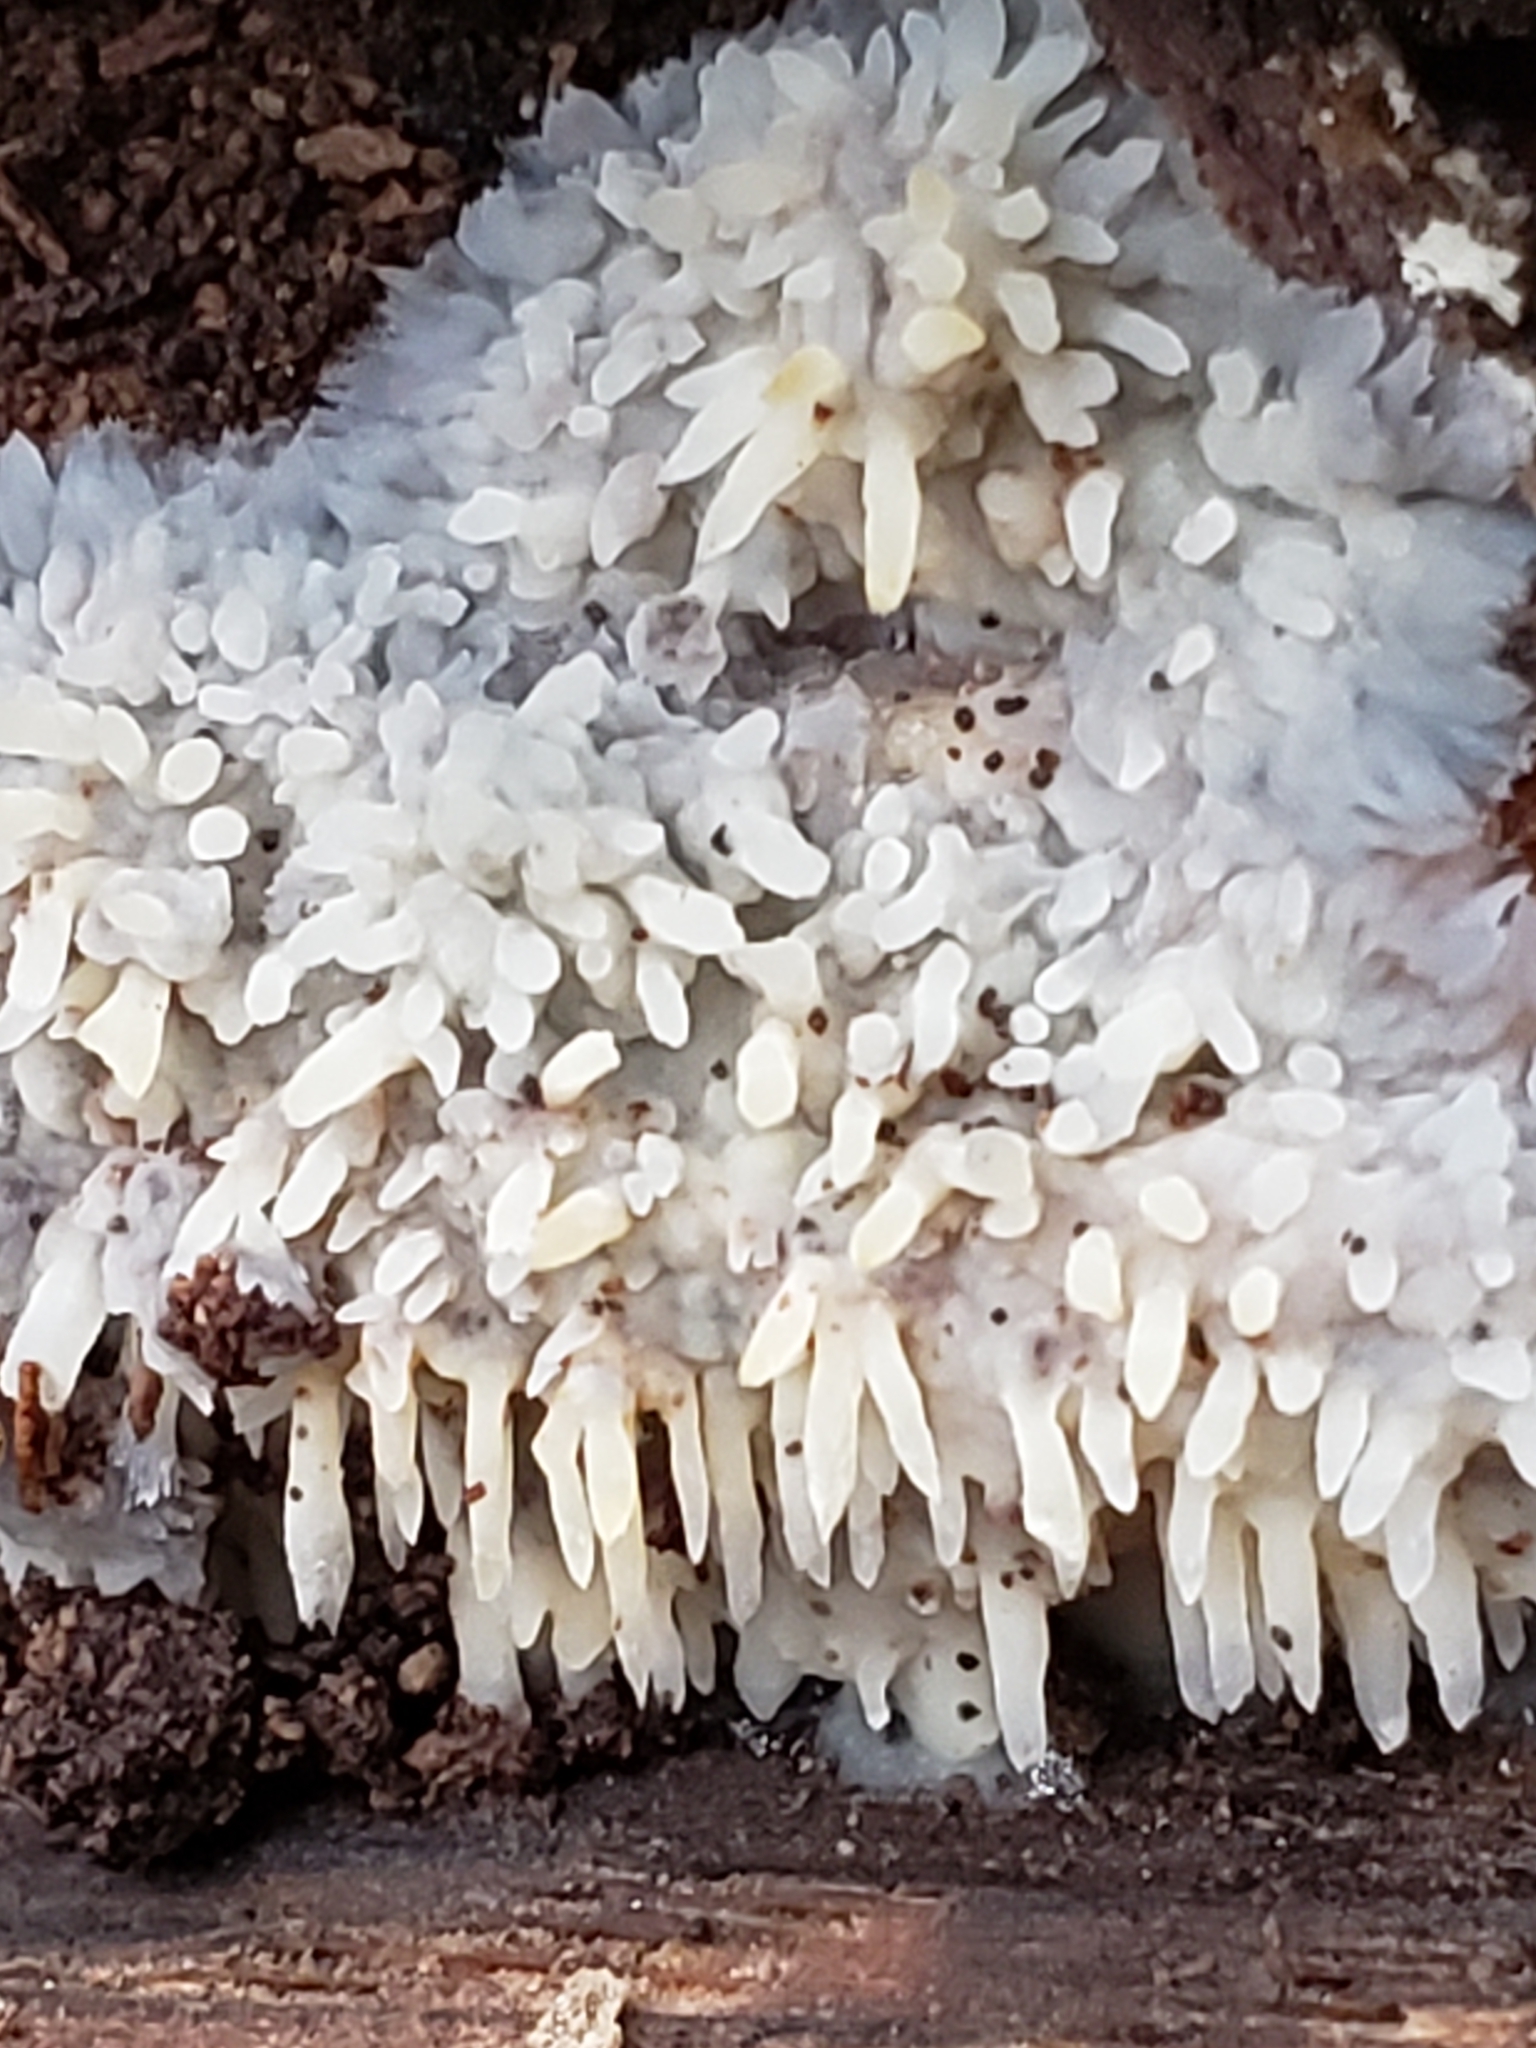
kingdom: Fungi
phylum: Basidiomycota
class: Agaricomycetes
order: Agaricales
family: Radulomycetaceae
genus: Radulomyces
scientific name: Radulomyces copelandii
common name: Asian beauty
